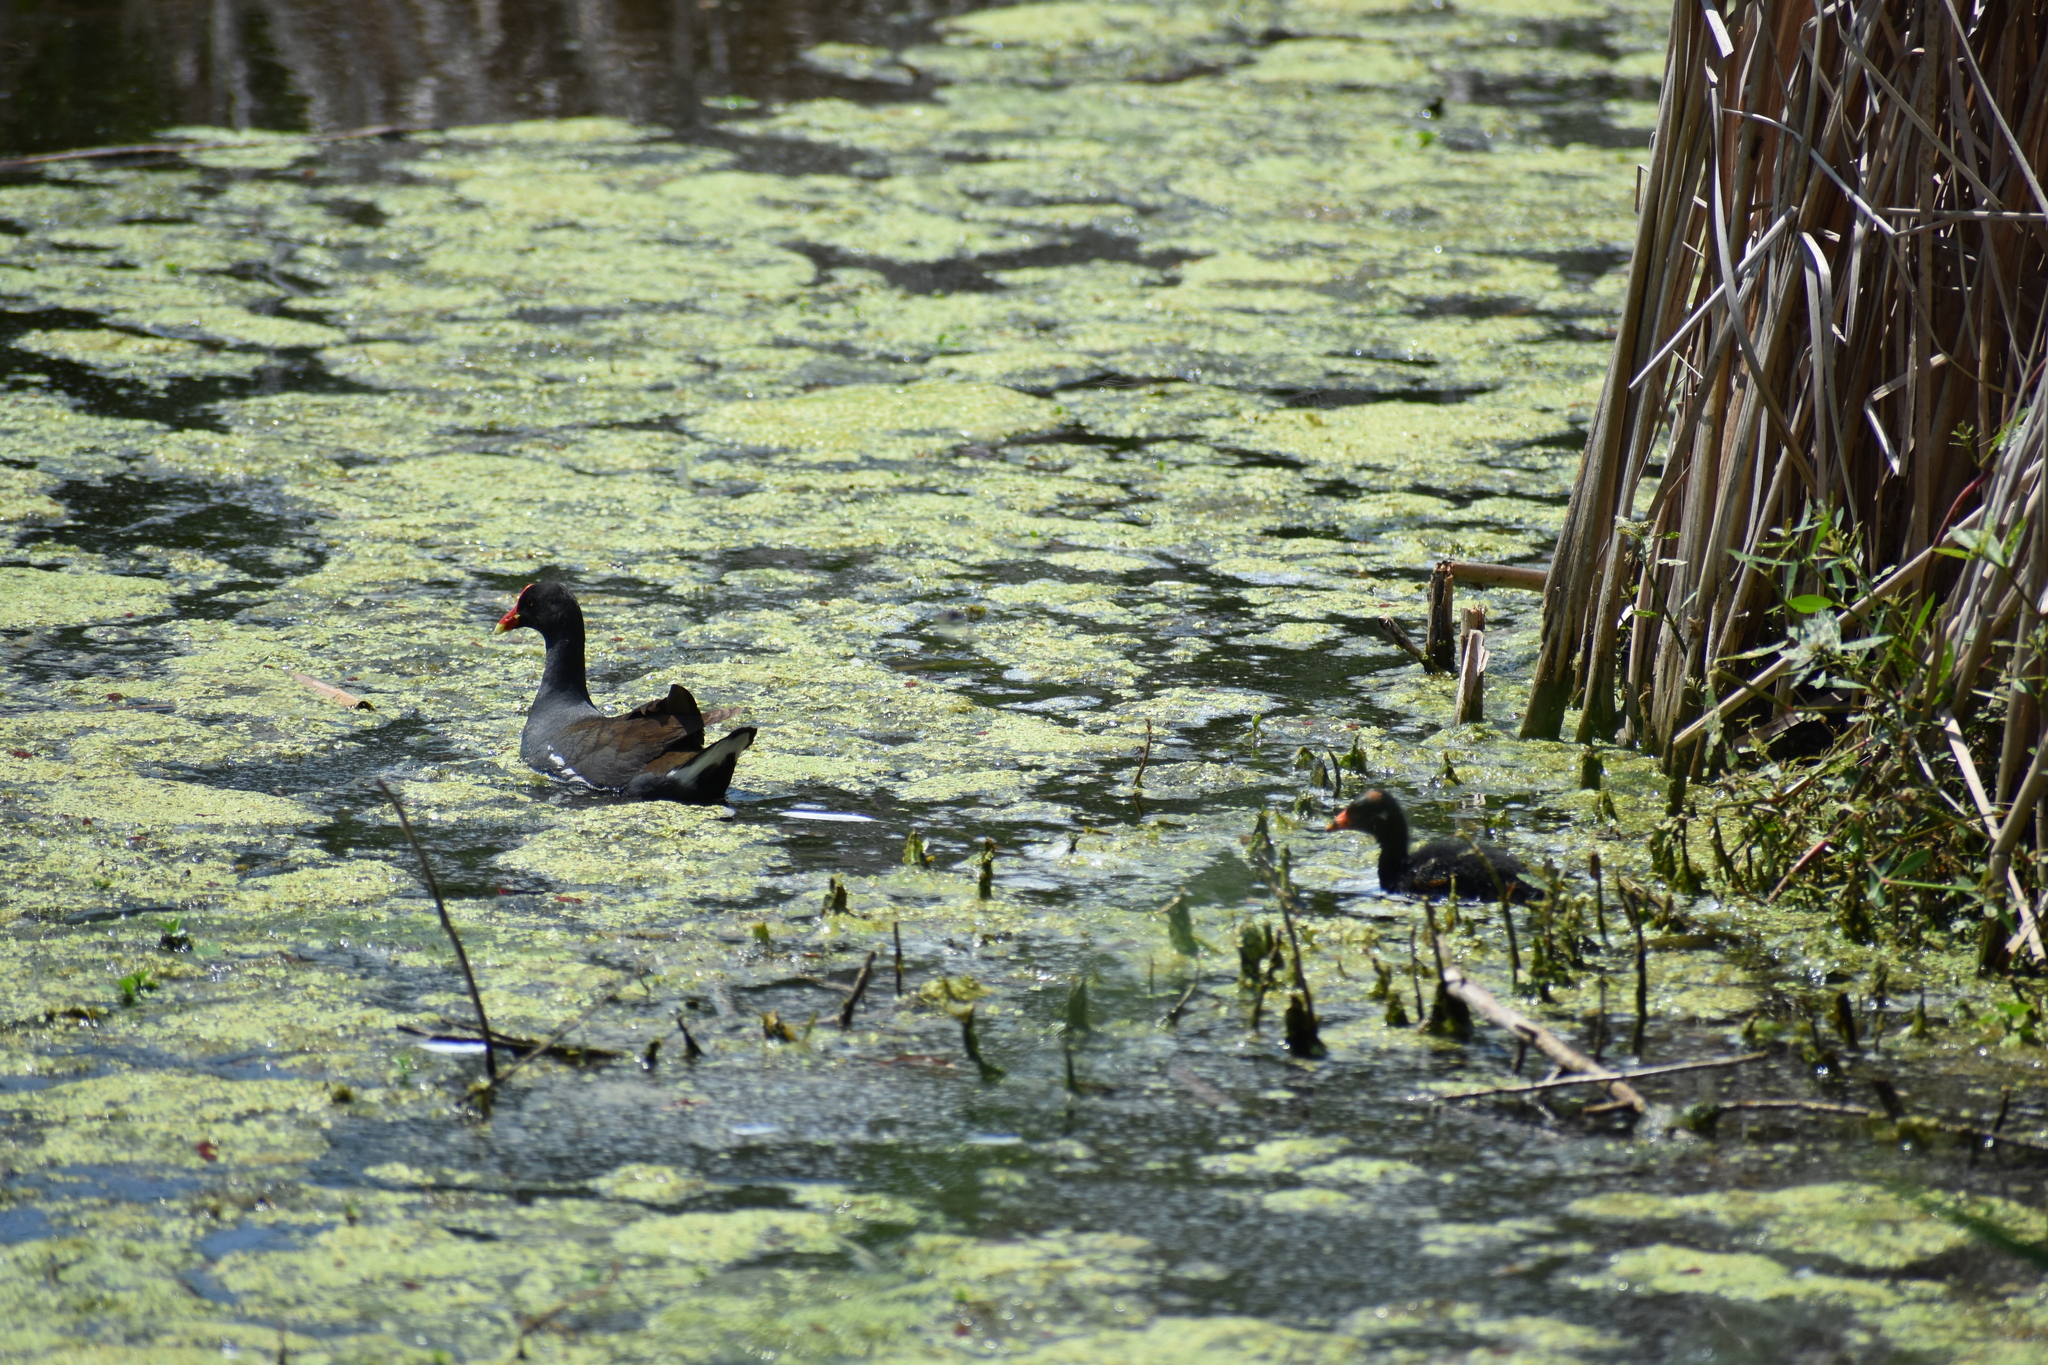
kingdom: Animalia
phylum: Chordata
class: Aves
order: Gruiformes
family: Rallidae
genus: Gallinula
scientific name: Gallinula chloropus
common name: Common moorhen
